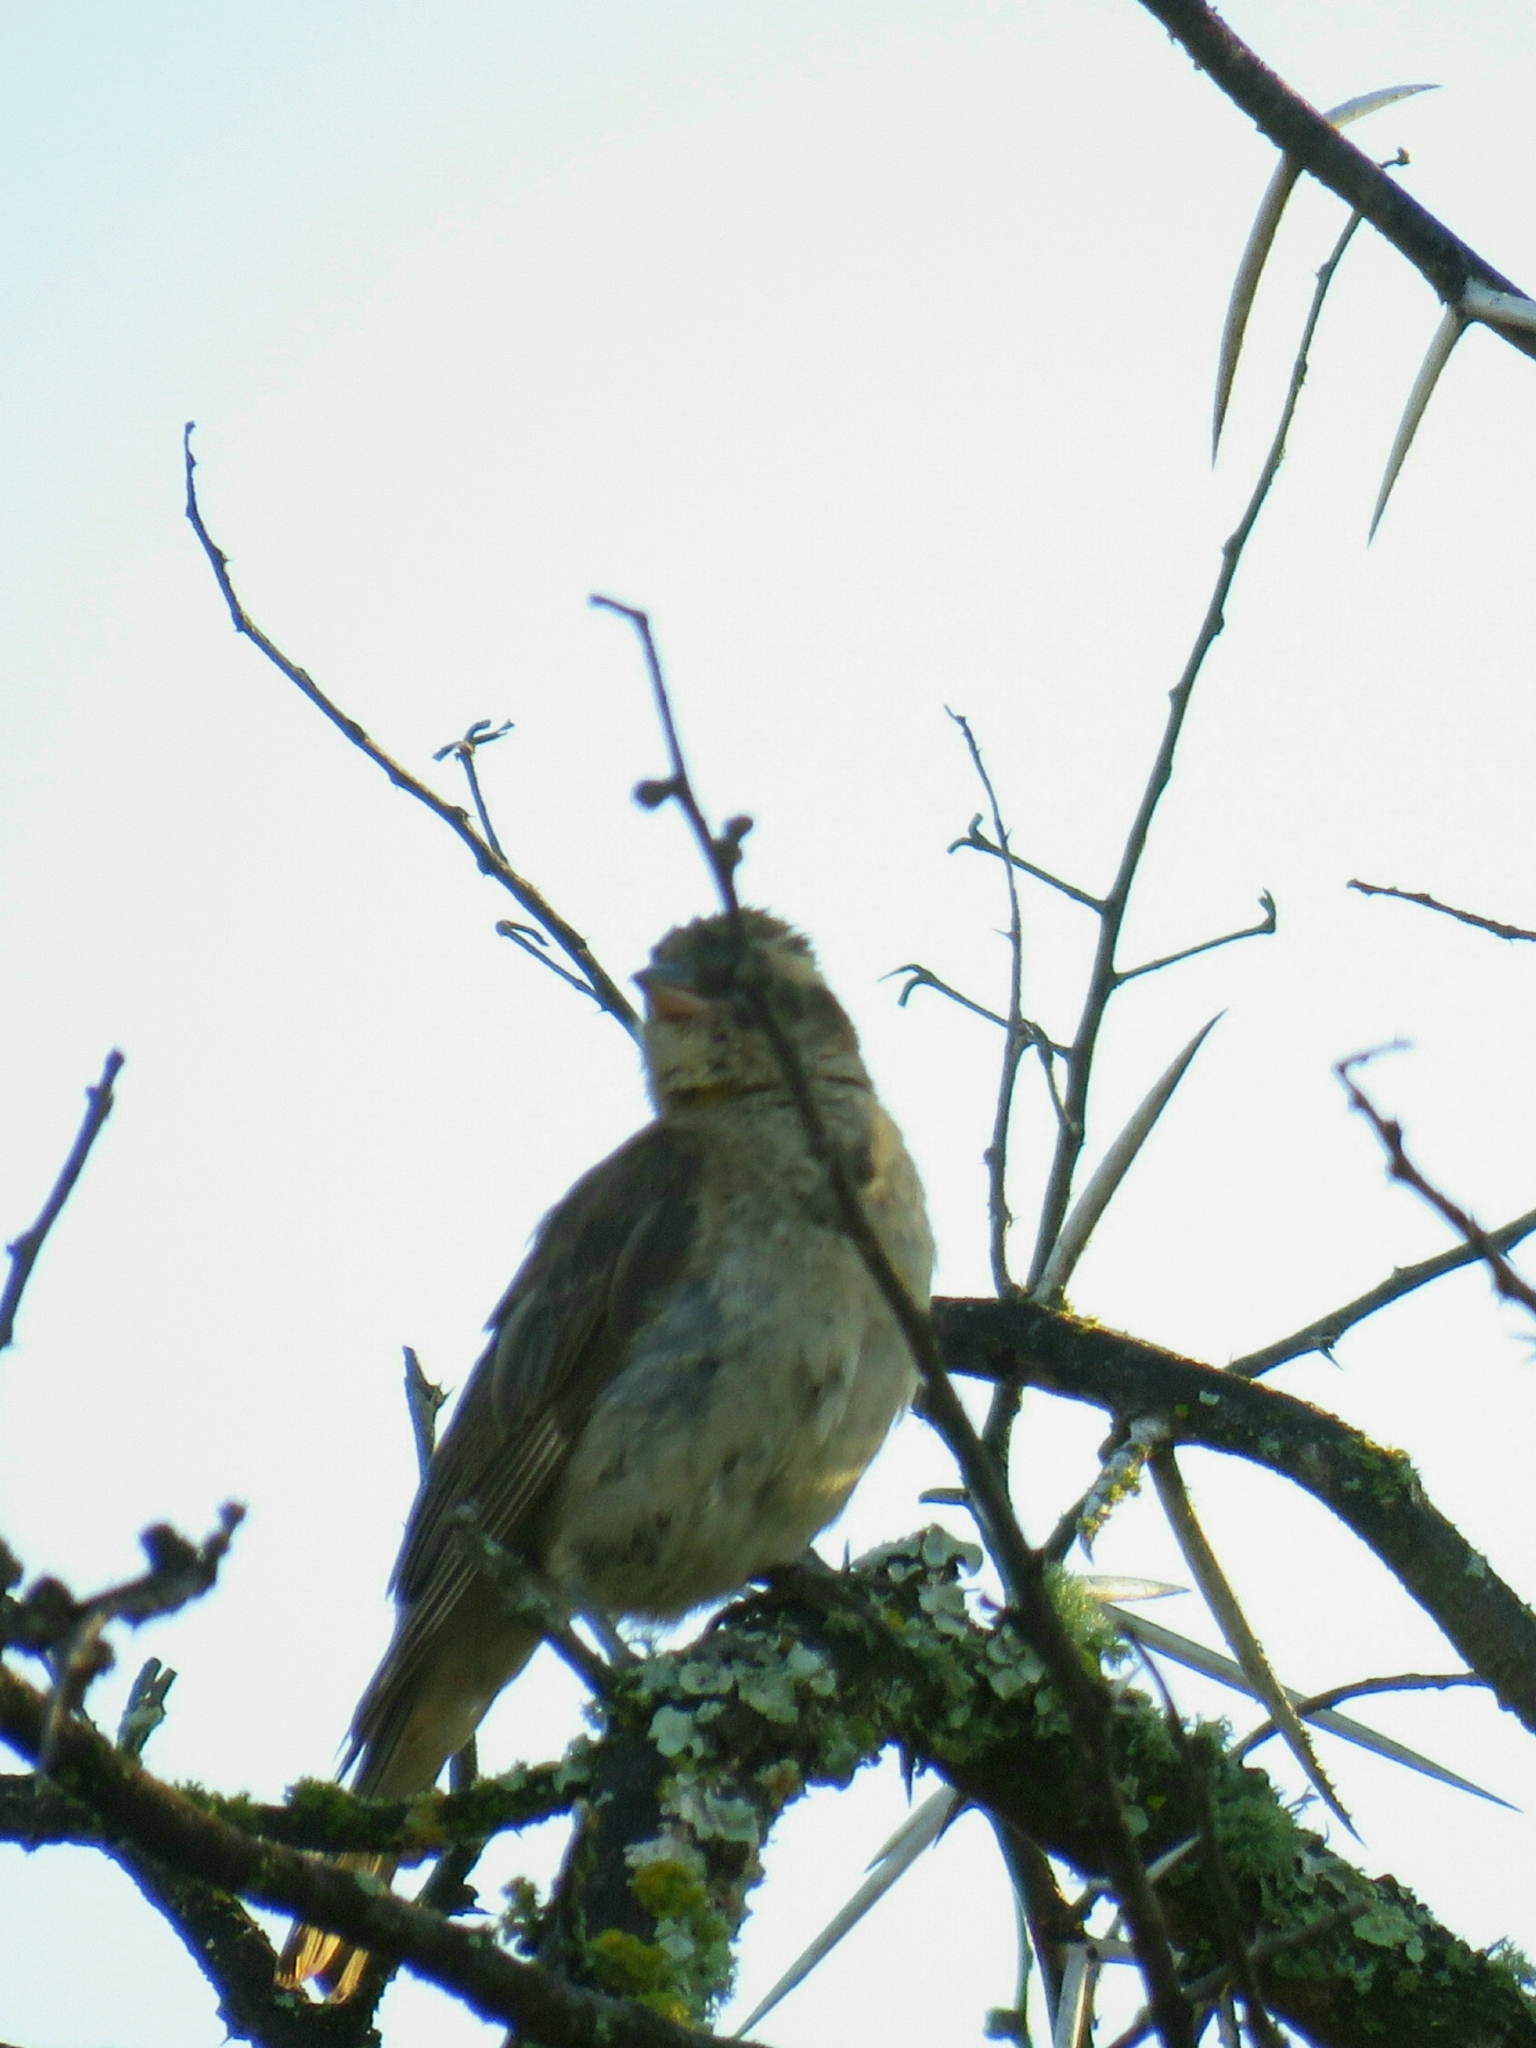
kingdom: Animalia
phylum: Chordata
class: Aves
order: Passeriformes
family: Passeridae
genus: Gymnoris
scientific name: Gymnoris superciliaris
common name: Yellow-throated petronia
